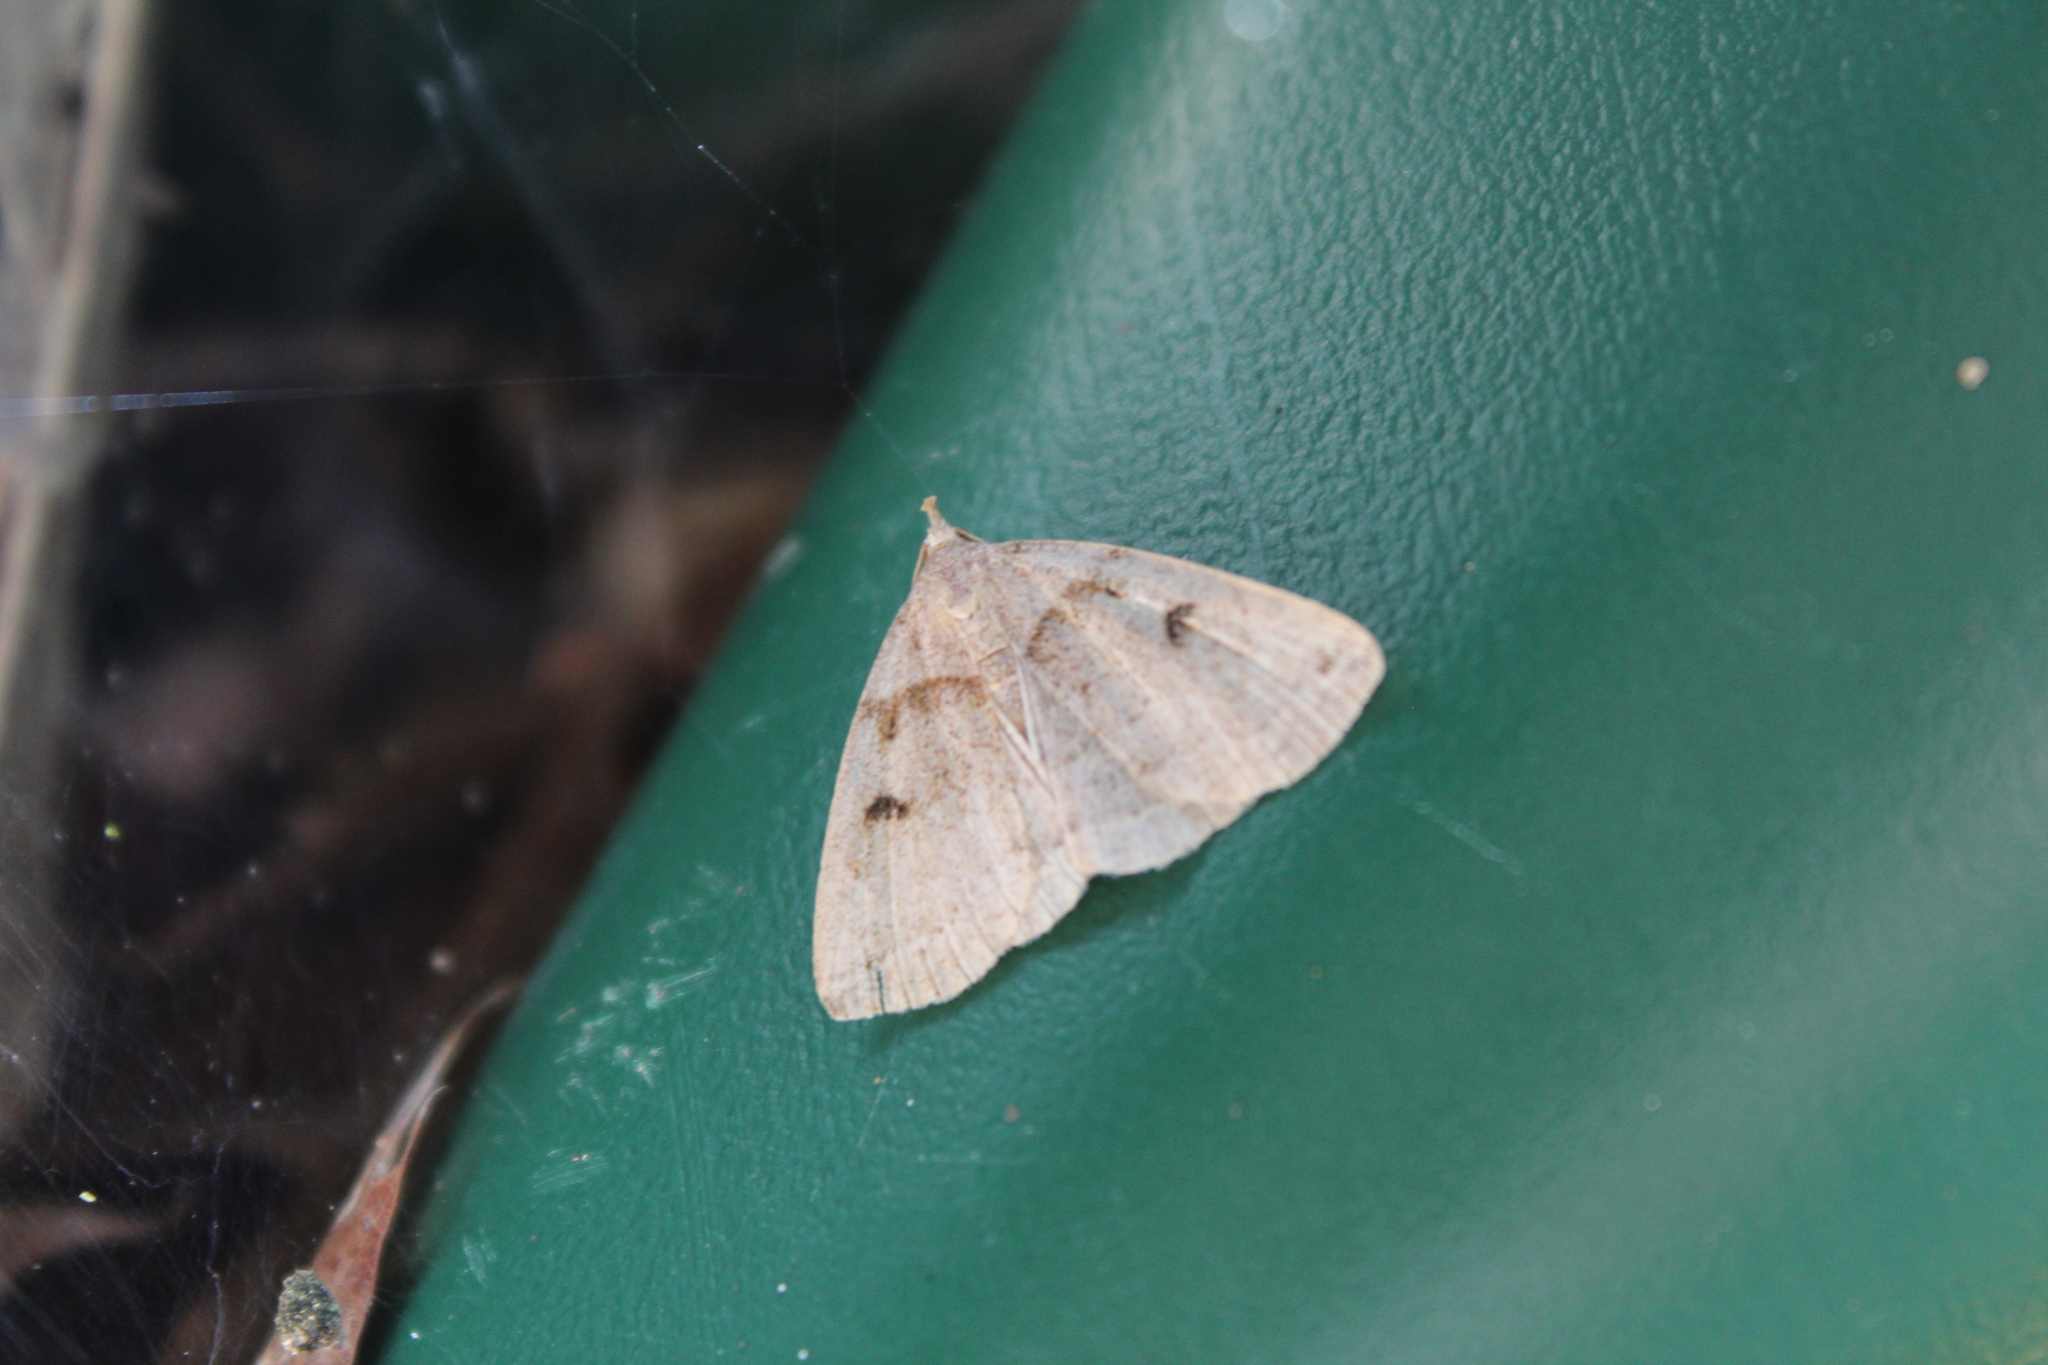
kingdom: Animalia
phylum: Arthropoda
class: Insecta
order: Lepidoptera
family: Erebidae
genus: Zanclognatha
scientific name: Zanclognatha laevigata
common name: Variable fan-foot
